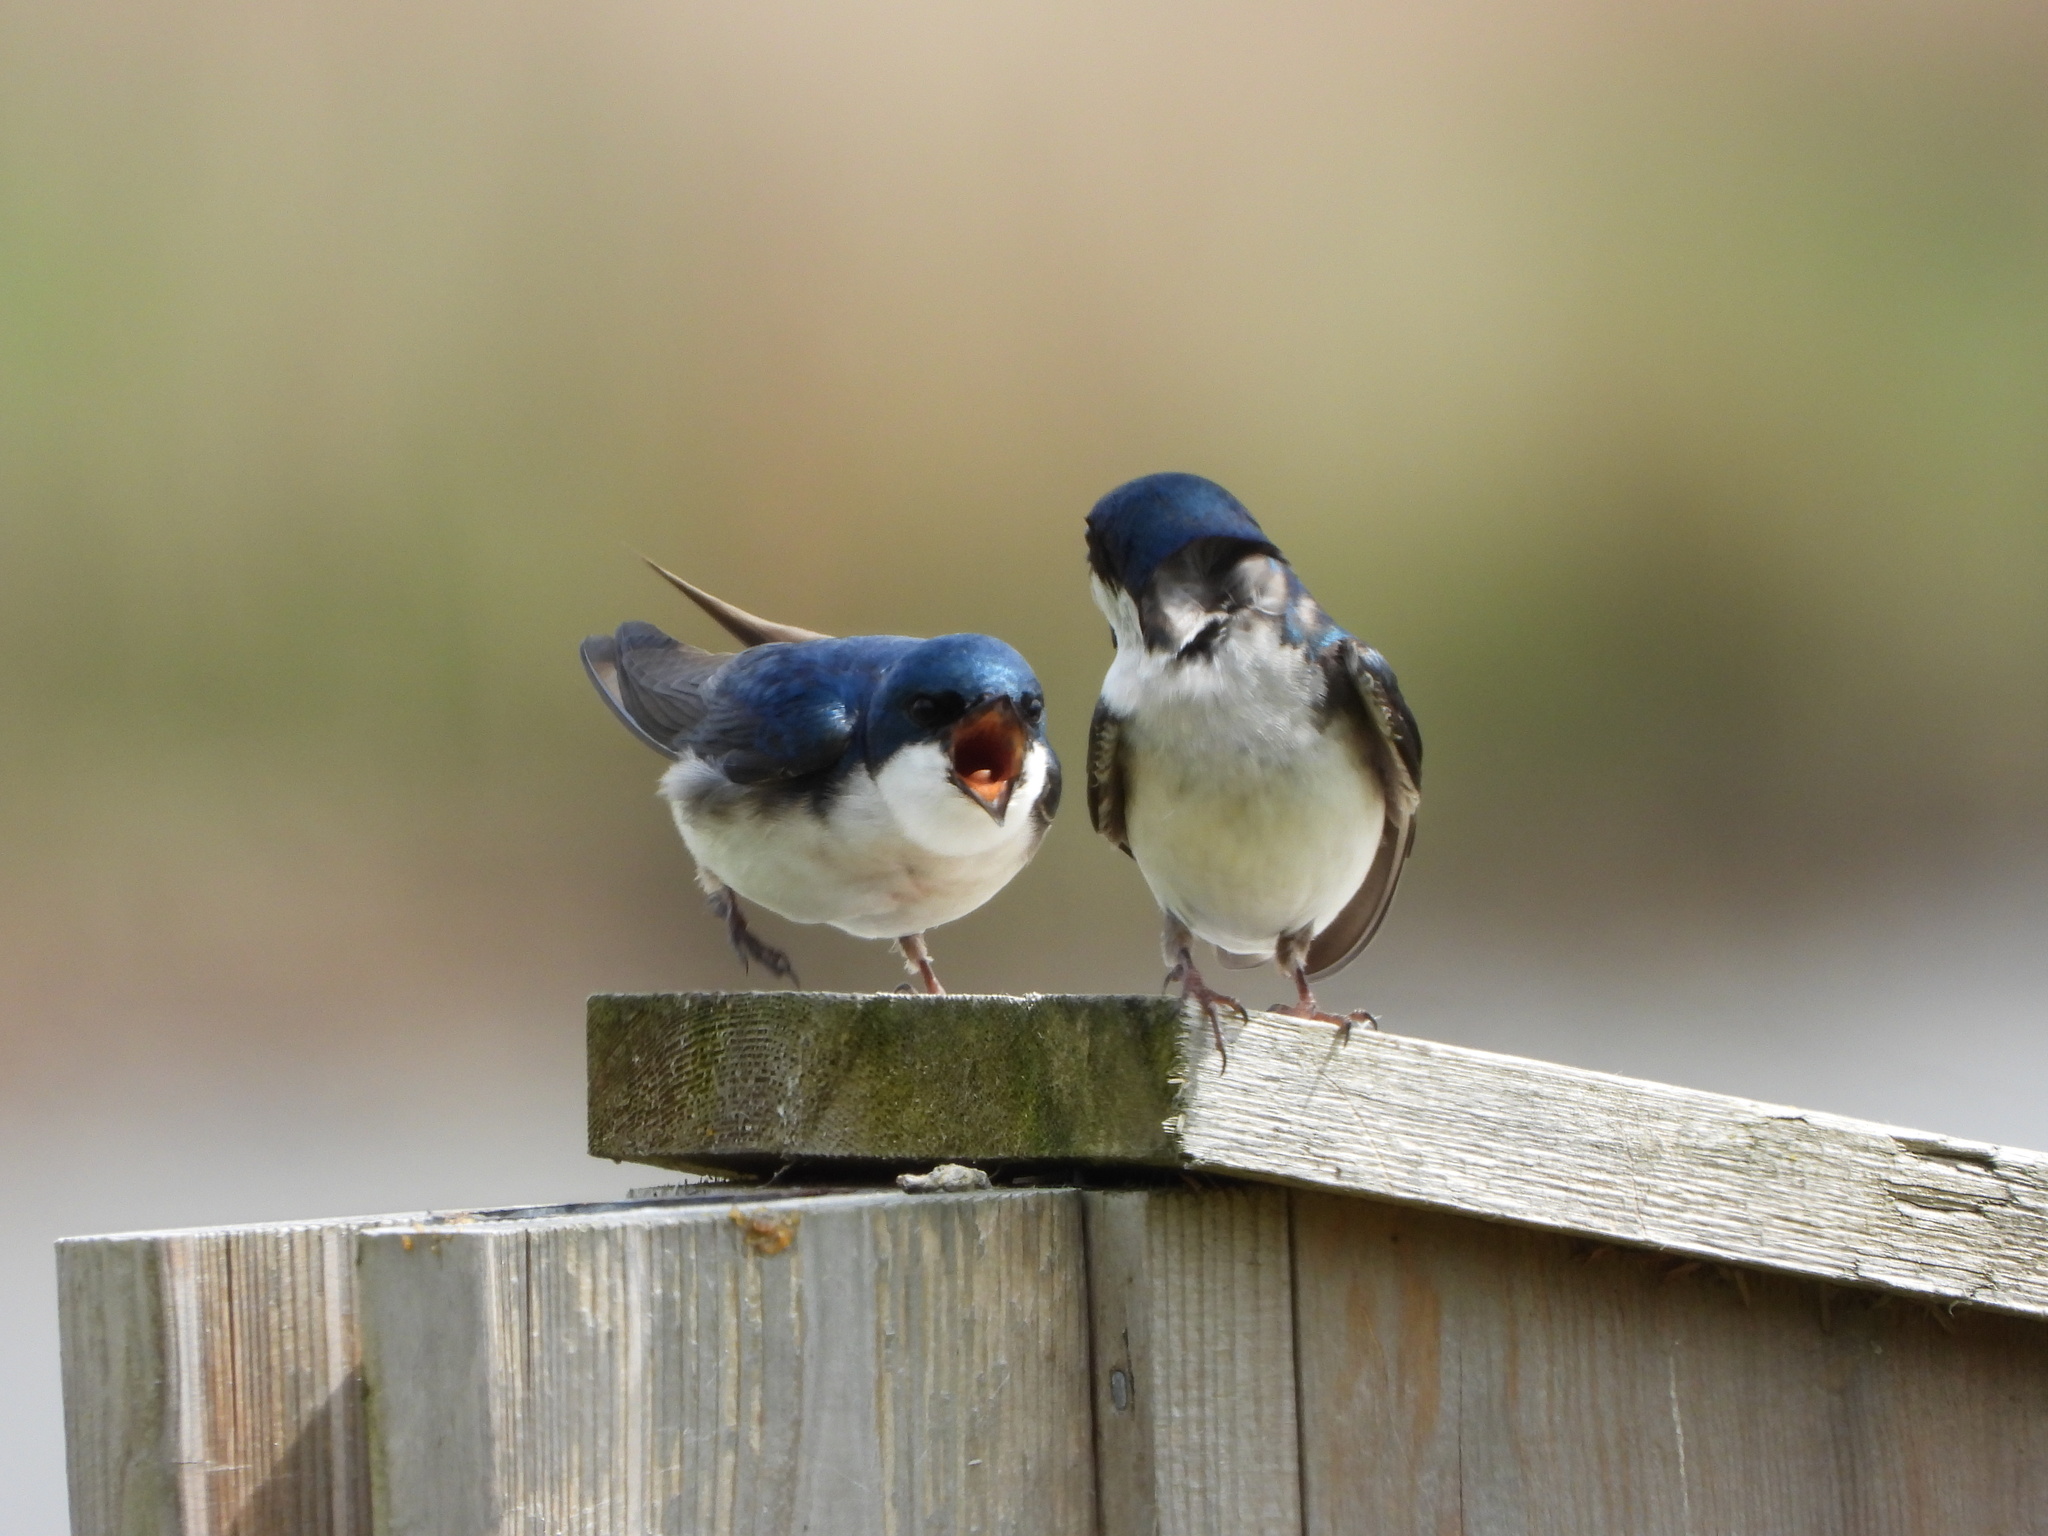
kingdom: Animalia
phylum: Chordata
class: Aves
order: Passeriformes
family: Hirundinidae
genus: Tachycineta
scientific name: Tachycineta bicolor
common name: Tree swallow
